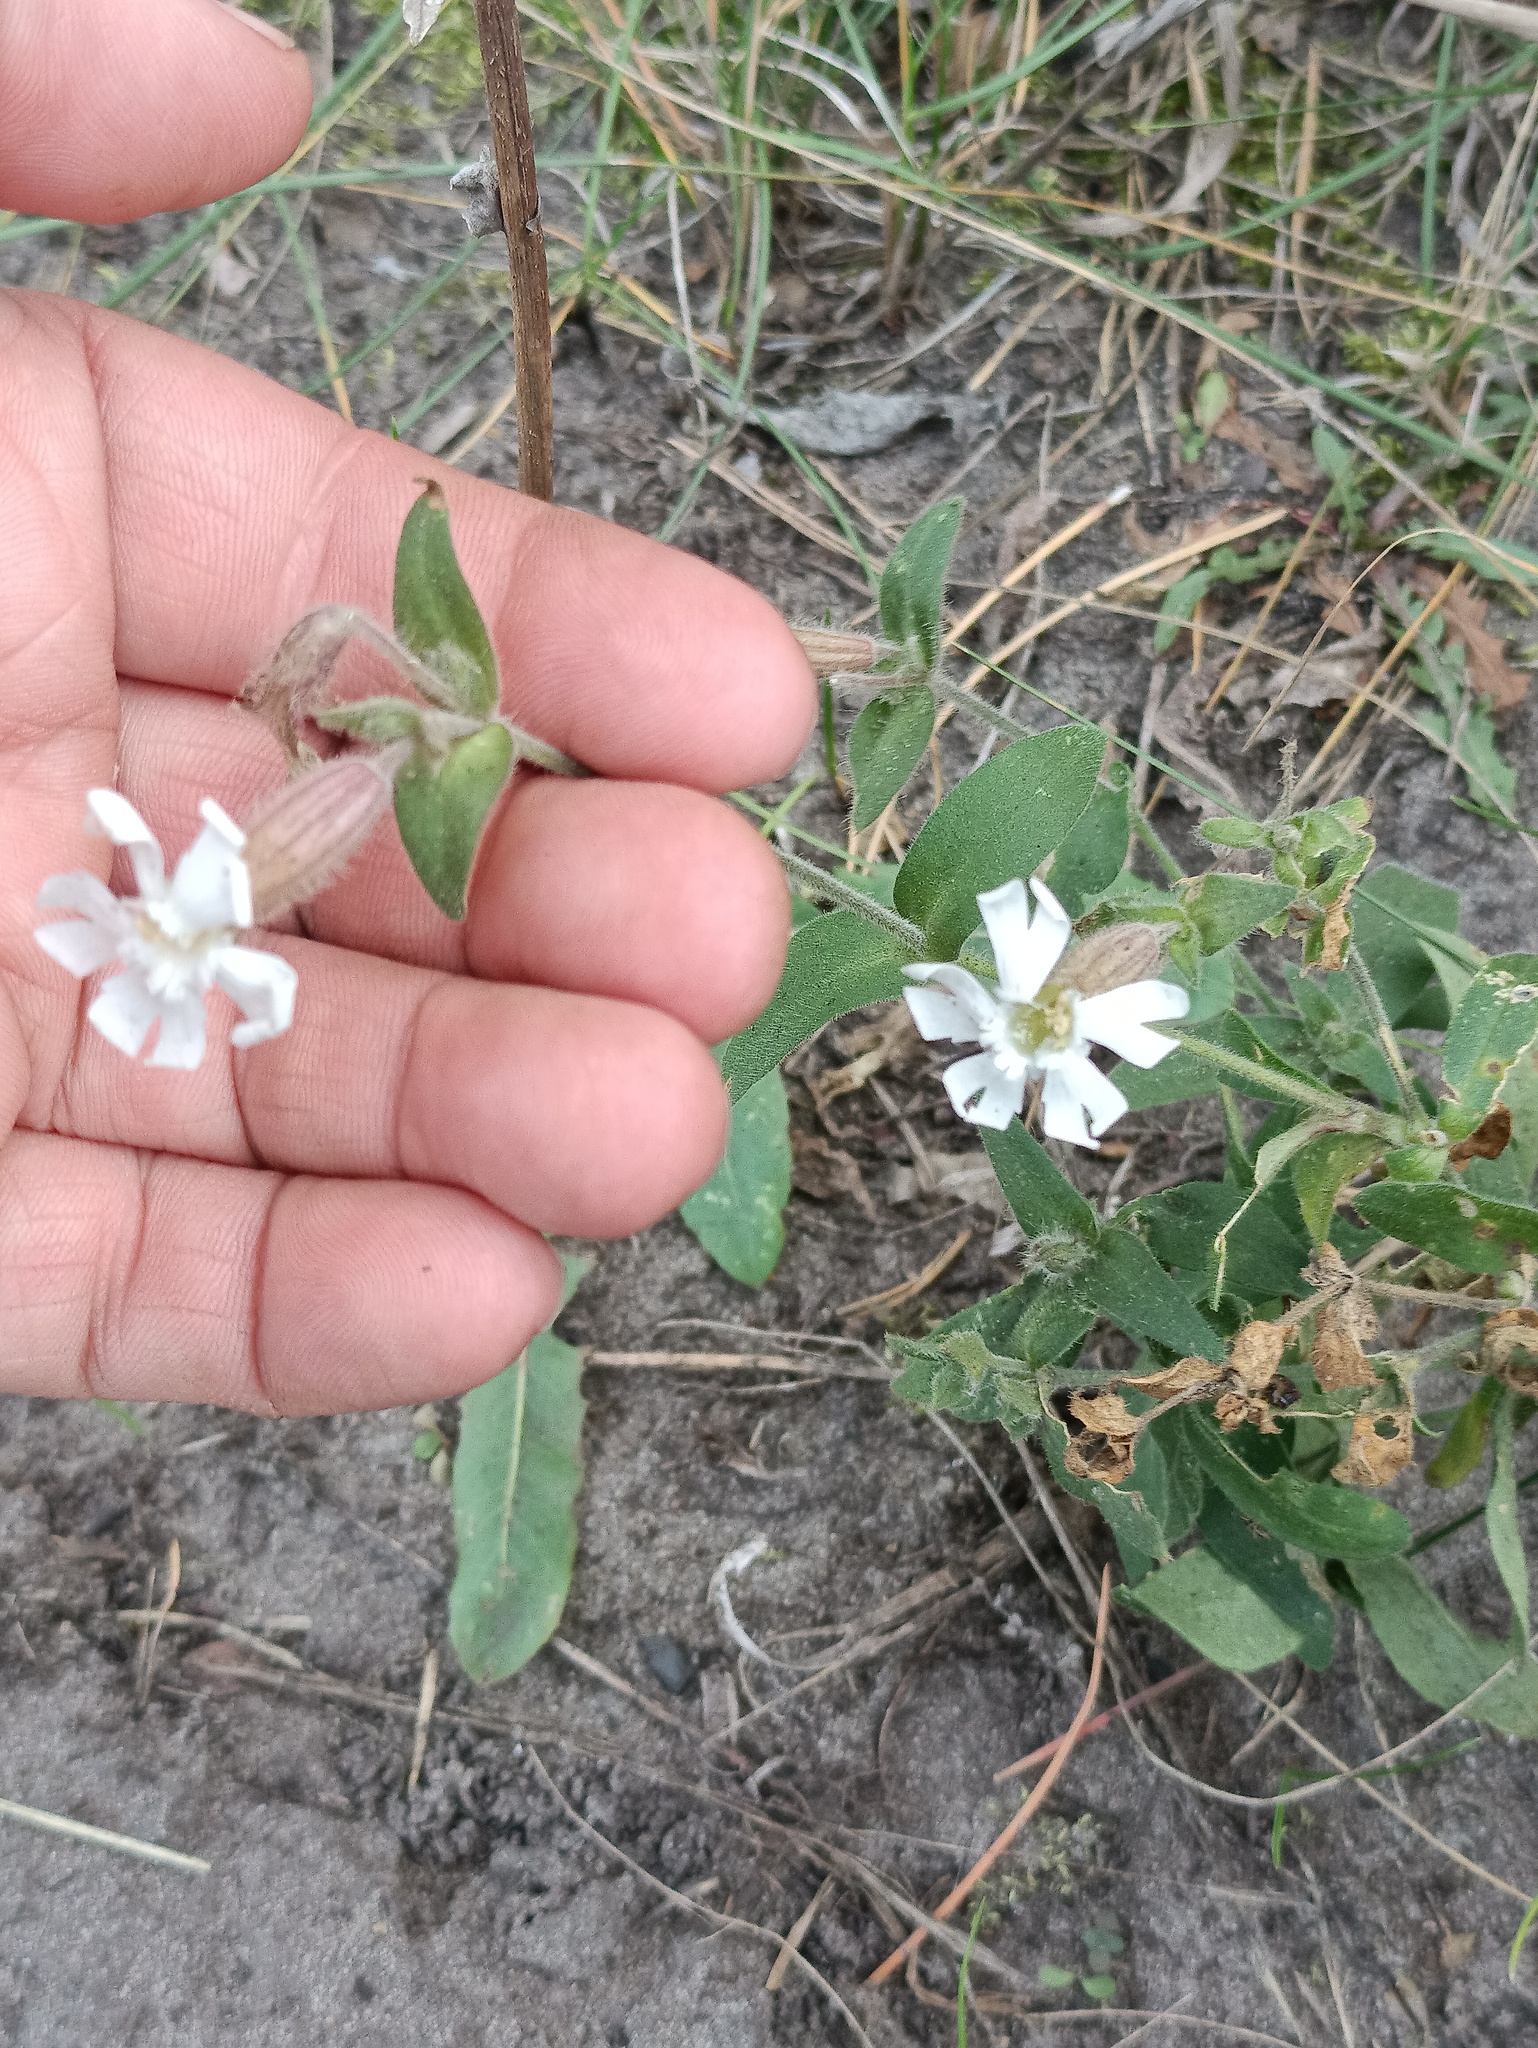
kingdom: Plantae
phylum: Tracheophyta
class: Magnoliopsida
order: Caryophyllales
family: Caryophyllaceae
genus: Silene
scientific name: Silene latifolia
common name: White campion
